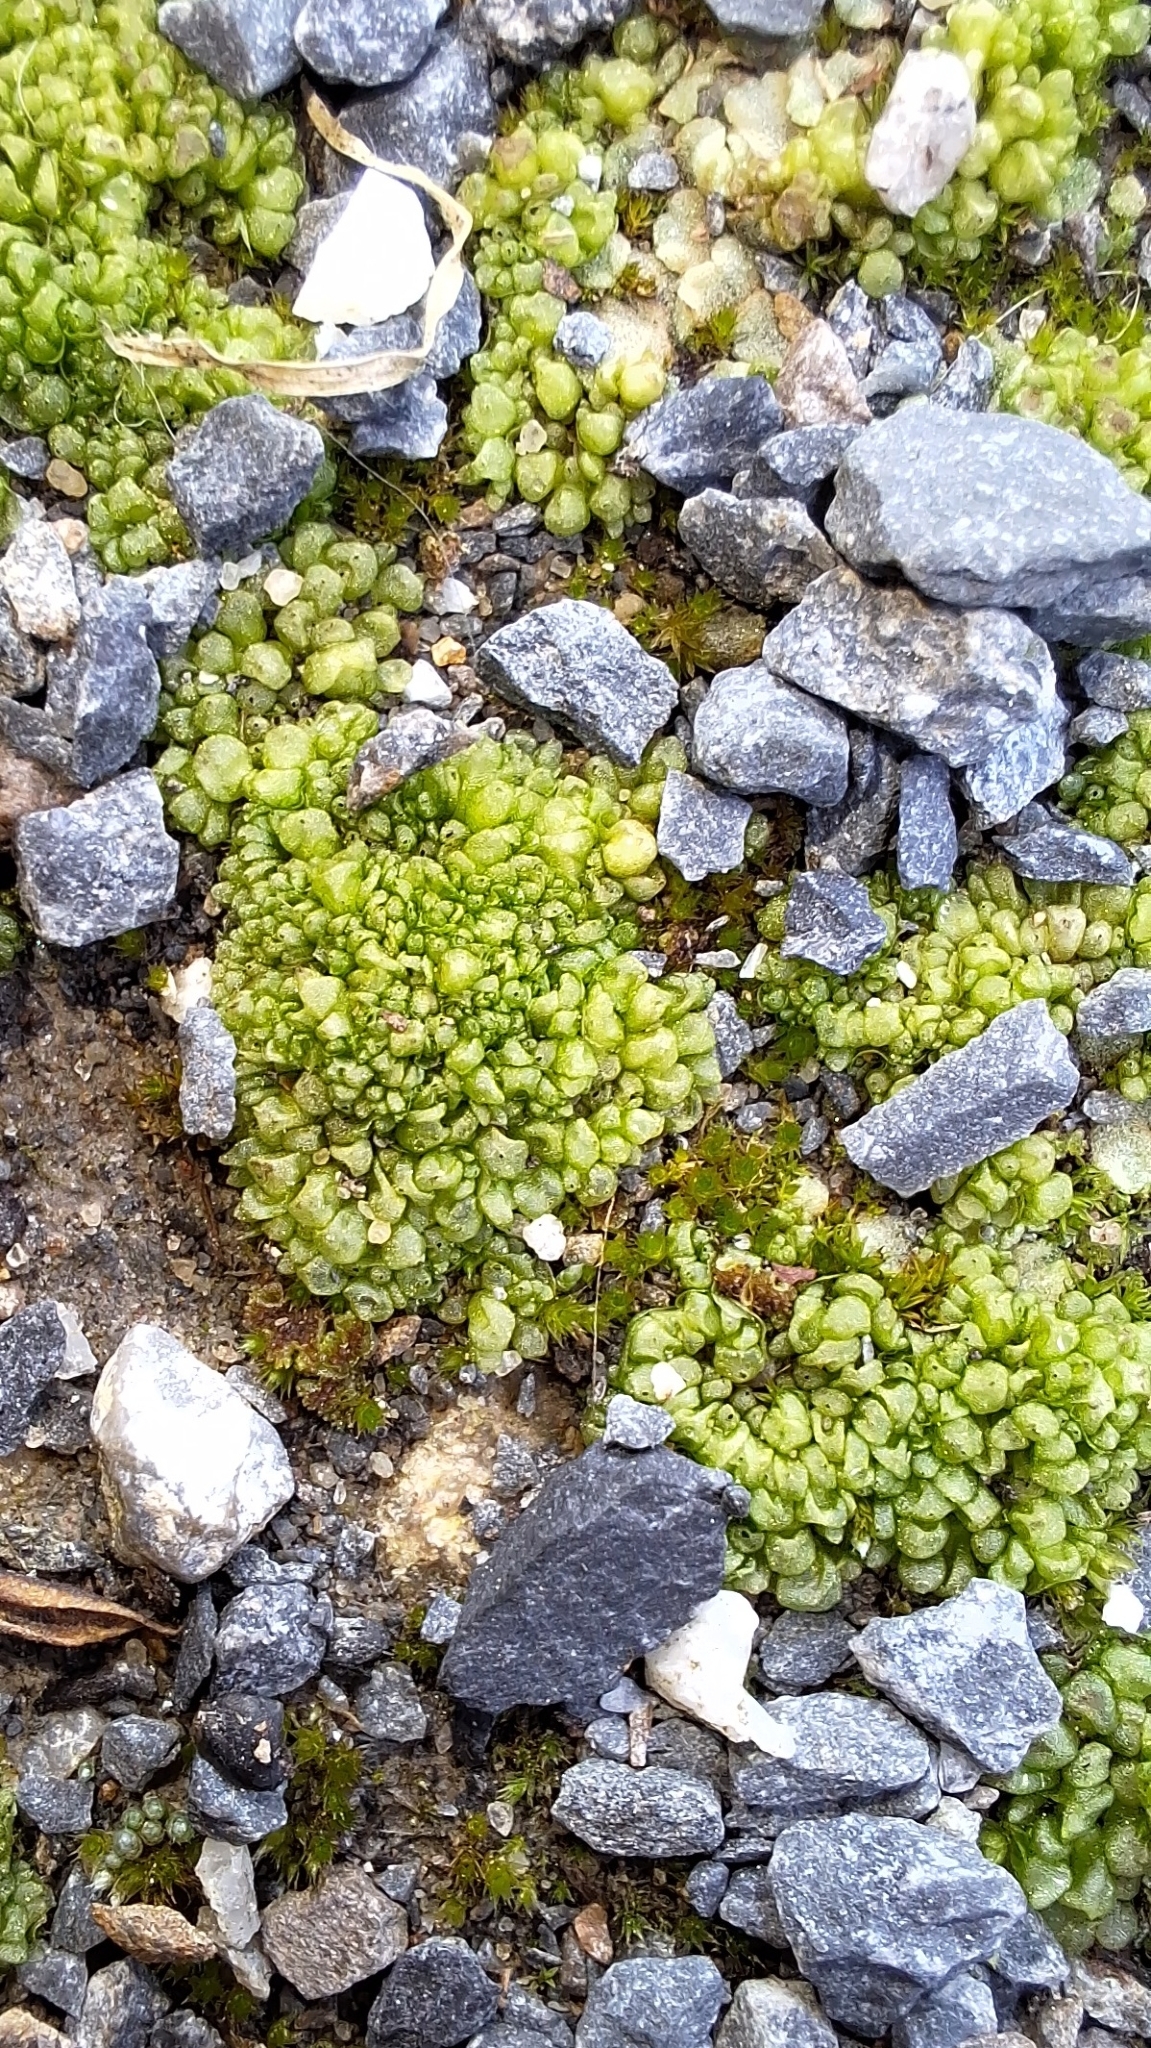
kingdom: Plantae
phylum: Marchantiophyta
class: Marchantiopsida
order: Sphaerocarpales
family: Sphaerocarpaceae
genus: Sphaerocarpos
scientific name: Sphaerocarpos texanus
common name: Texas balloonwort
